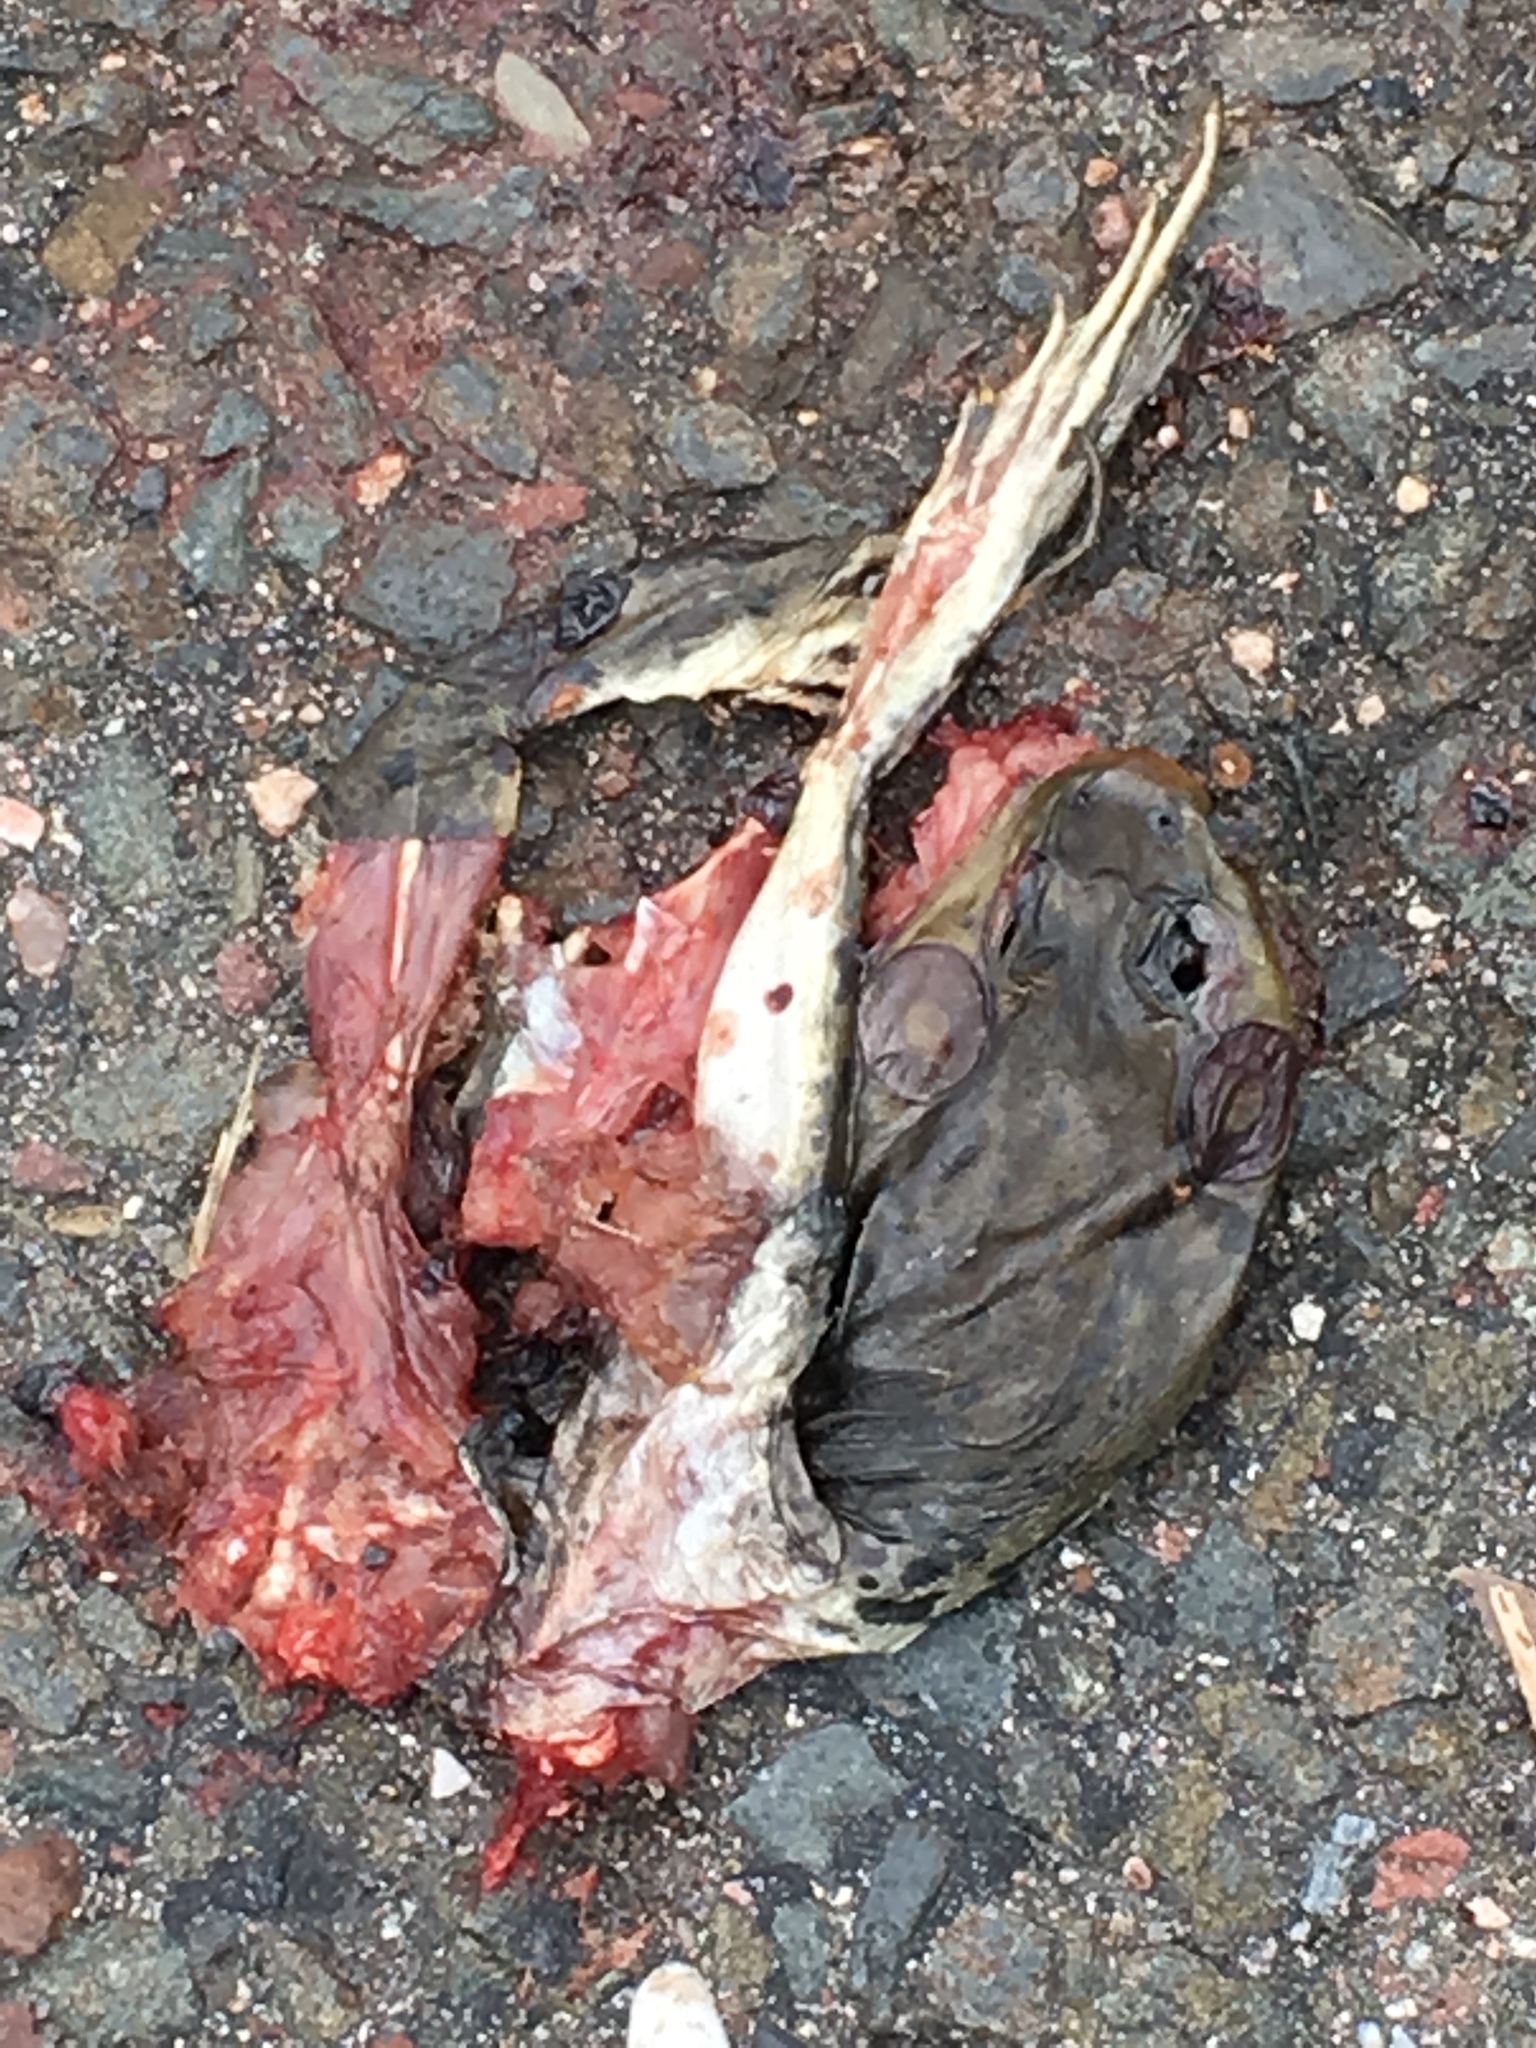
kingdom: Animalia
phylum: Chordata
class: Amphibia
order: Anura
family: Ranidae
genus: Lithobates
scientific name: Lithobates catesbeianus
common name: American bullfrog
